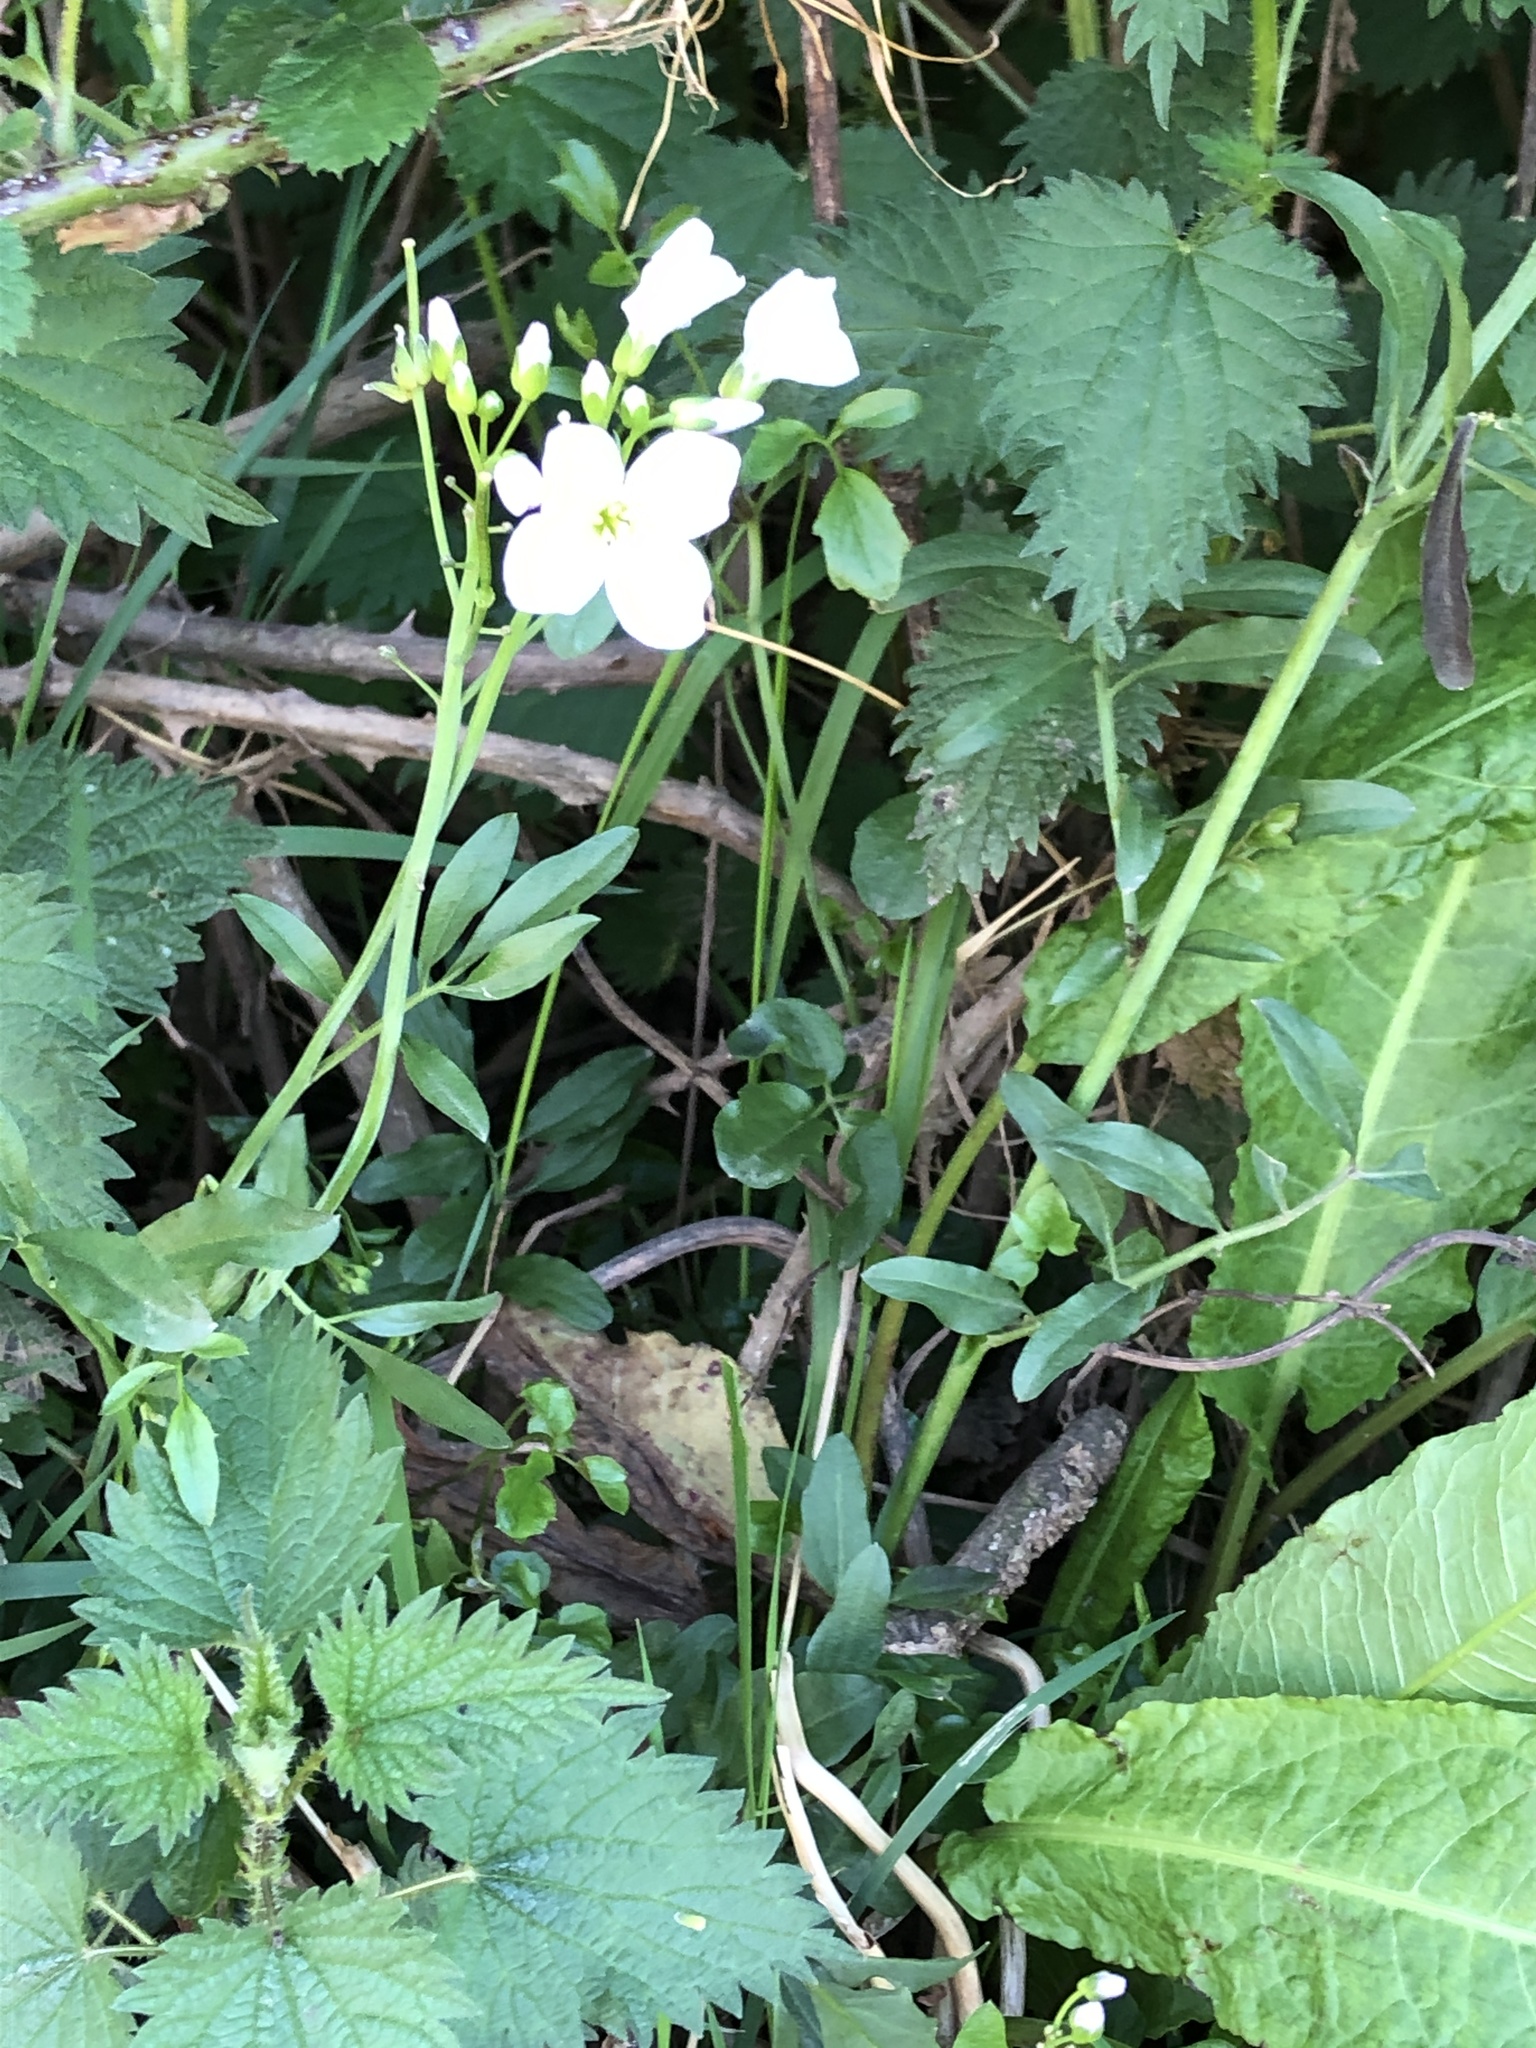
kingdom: Plantae
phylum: Tracheophyta
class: Magnoliopsida
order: Brassicales
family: Brassicaceae
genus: Cardamine
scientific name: Cardamine pratensis
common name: Cuckoo flower
